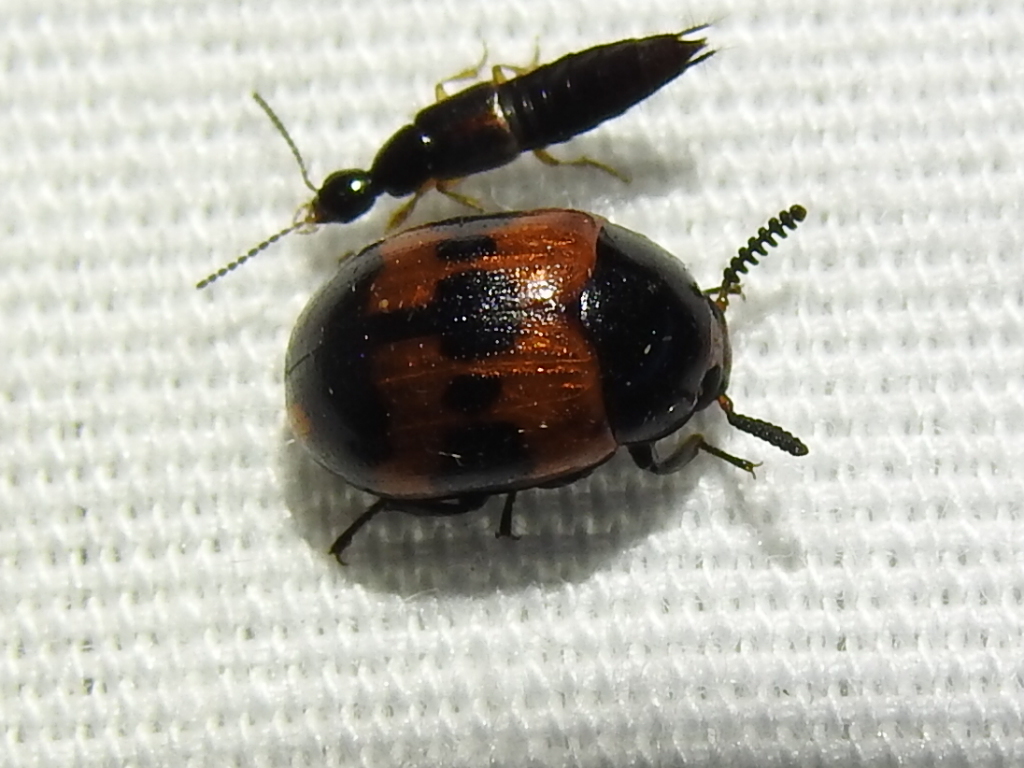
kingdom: Animalia
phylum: Arthropoda
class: Insecta
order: Coleoptera
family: Tenebrionidae
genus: Diaperis
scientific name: Diaperis nigronotata
